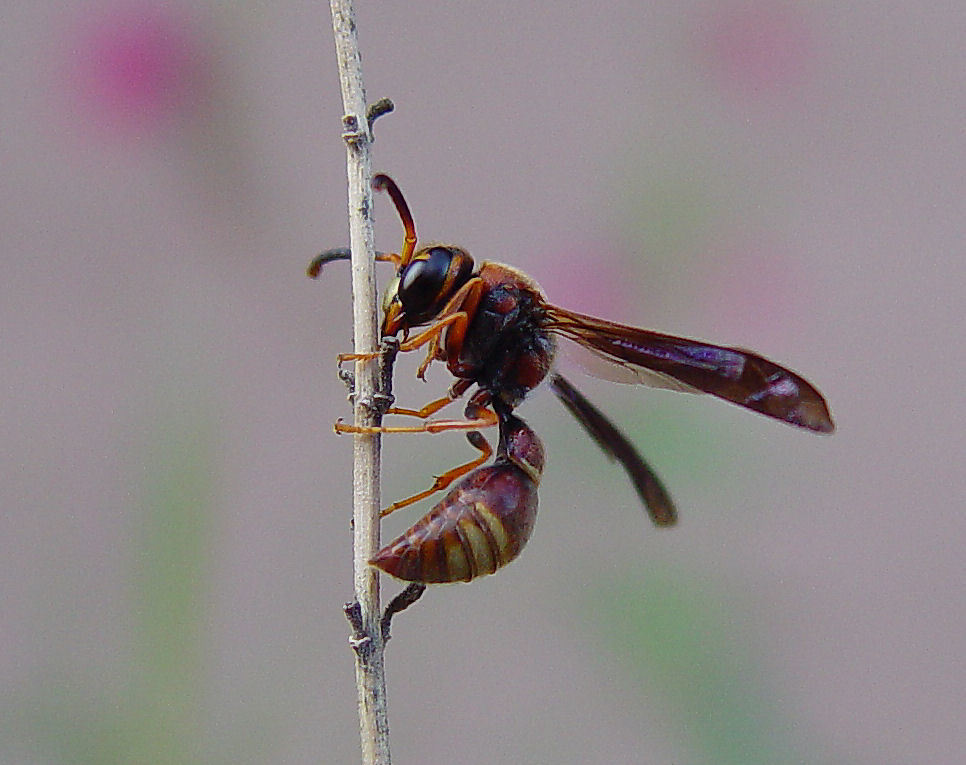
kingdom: Animalia
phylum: Arthropoda
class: Insecta
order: Hymenoptera
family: Eumenidae
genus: Parazumia
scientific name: Parazumia tolteca
